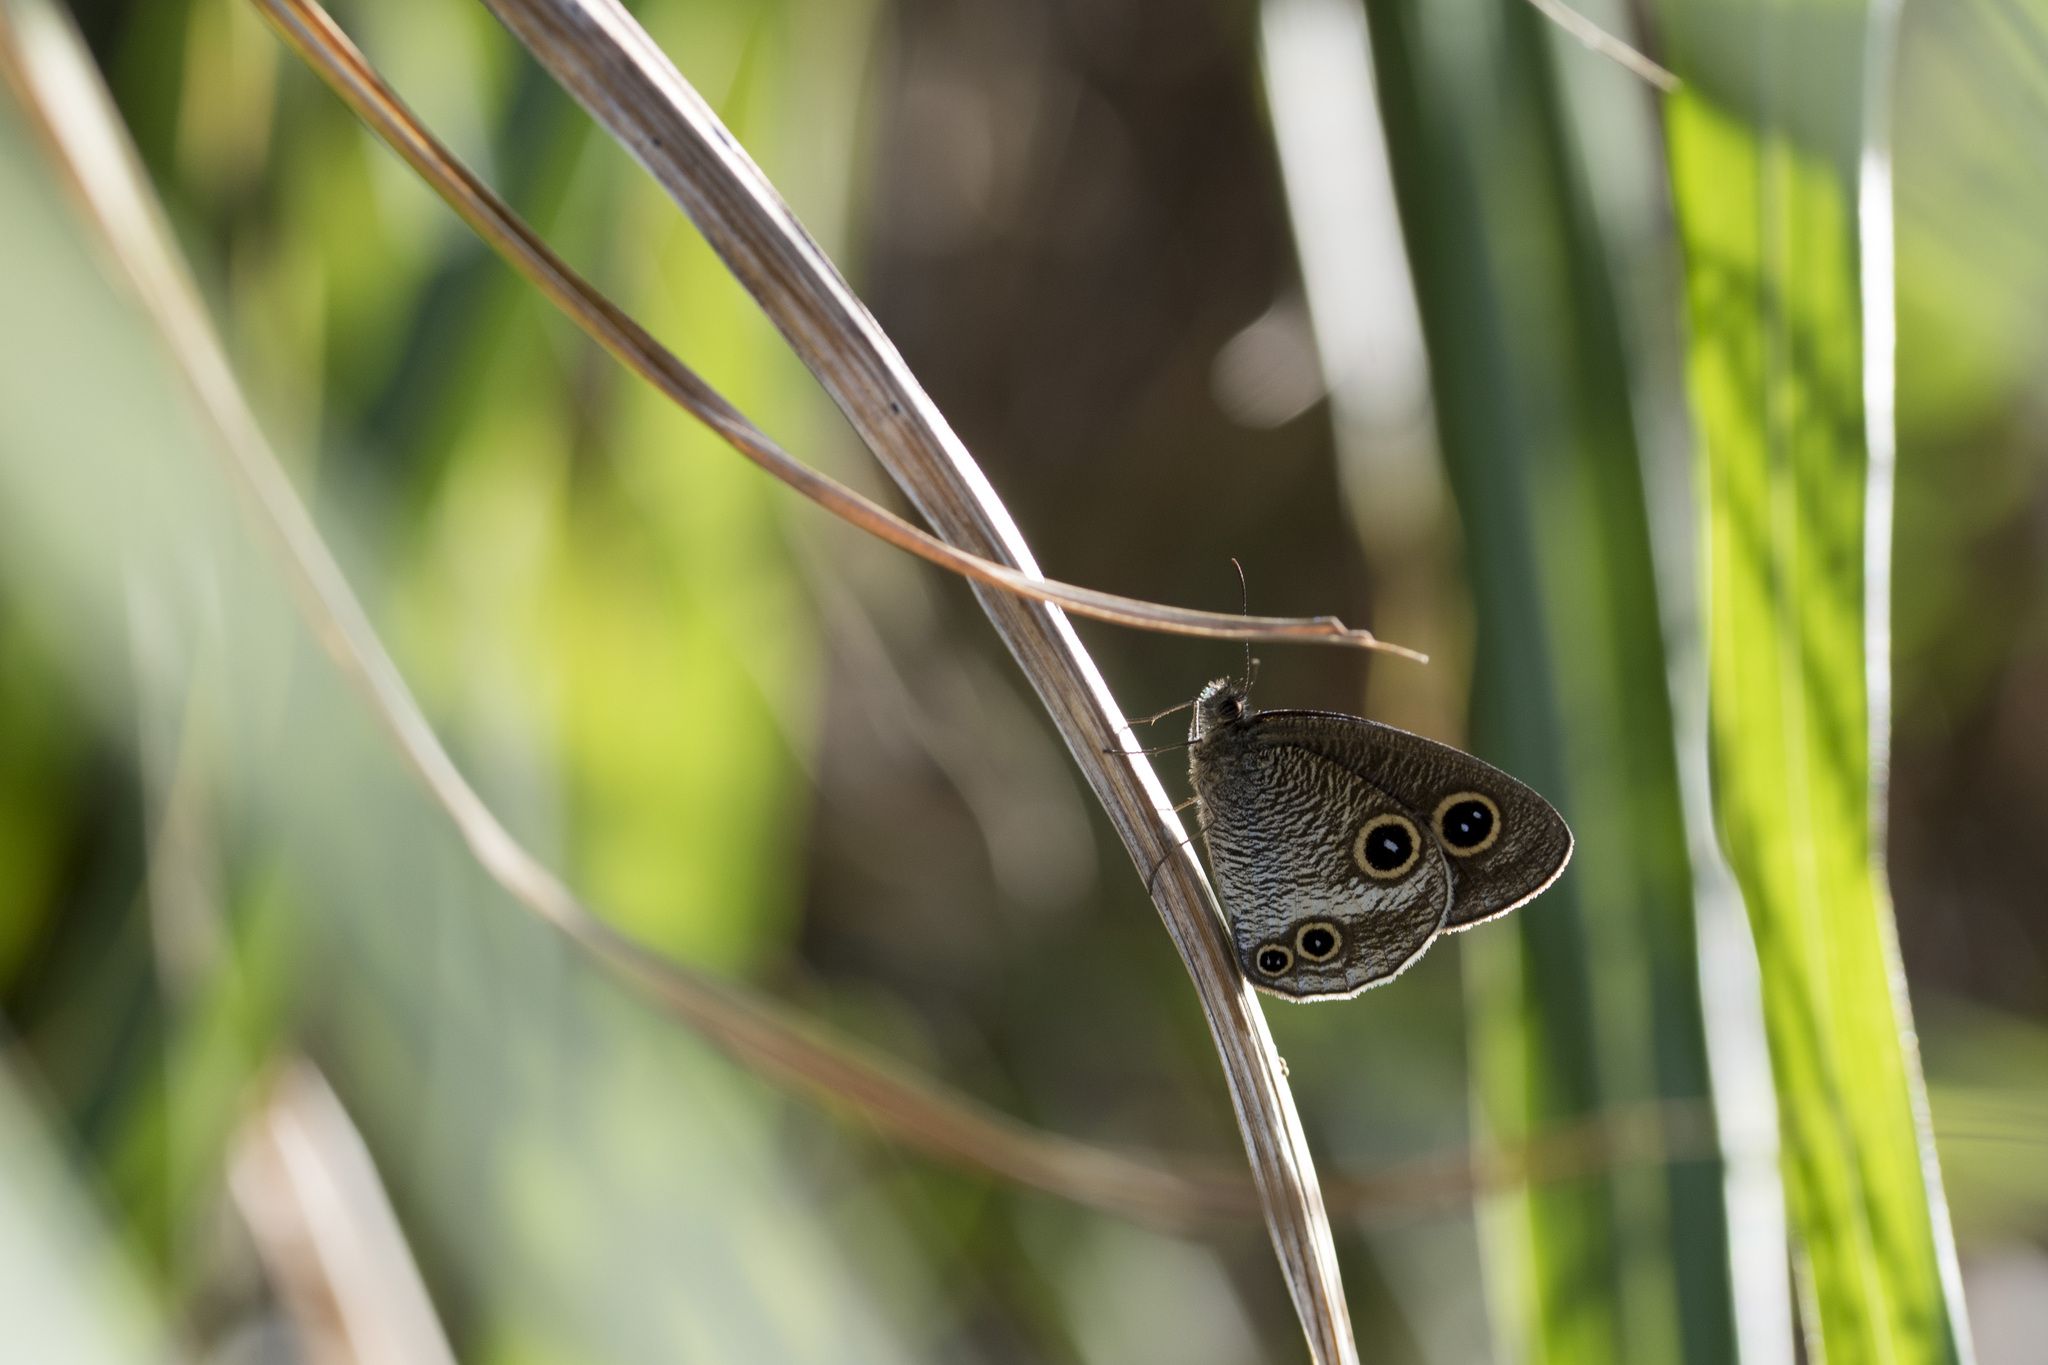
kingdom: Animalia
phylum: Arthropoda
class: Insecta
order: Lepidoptera
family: Nymphalidae
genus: Ypthima
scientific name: Ypthima motschulskyi
